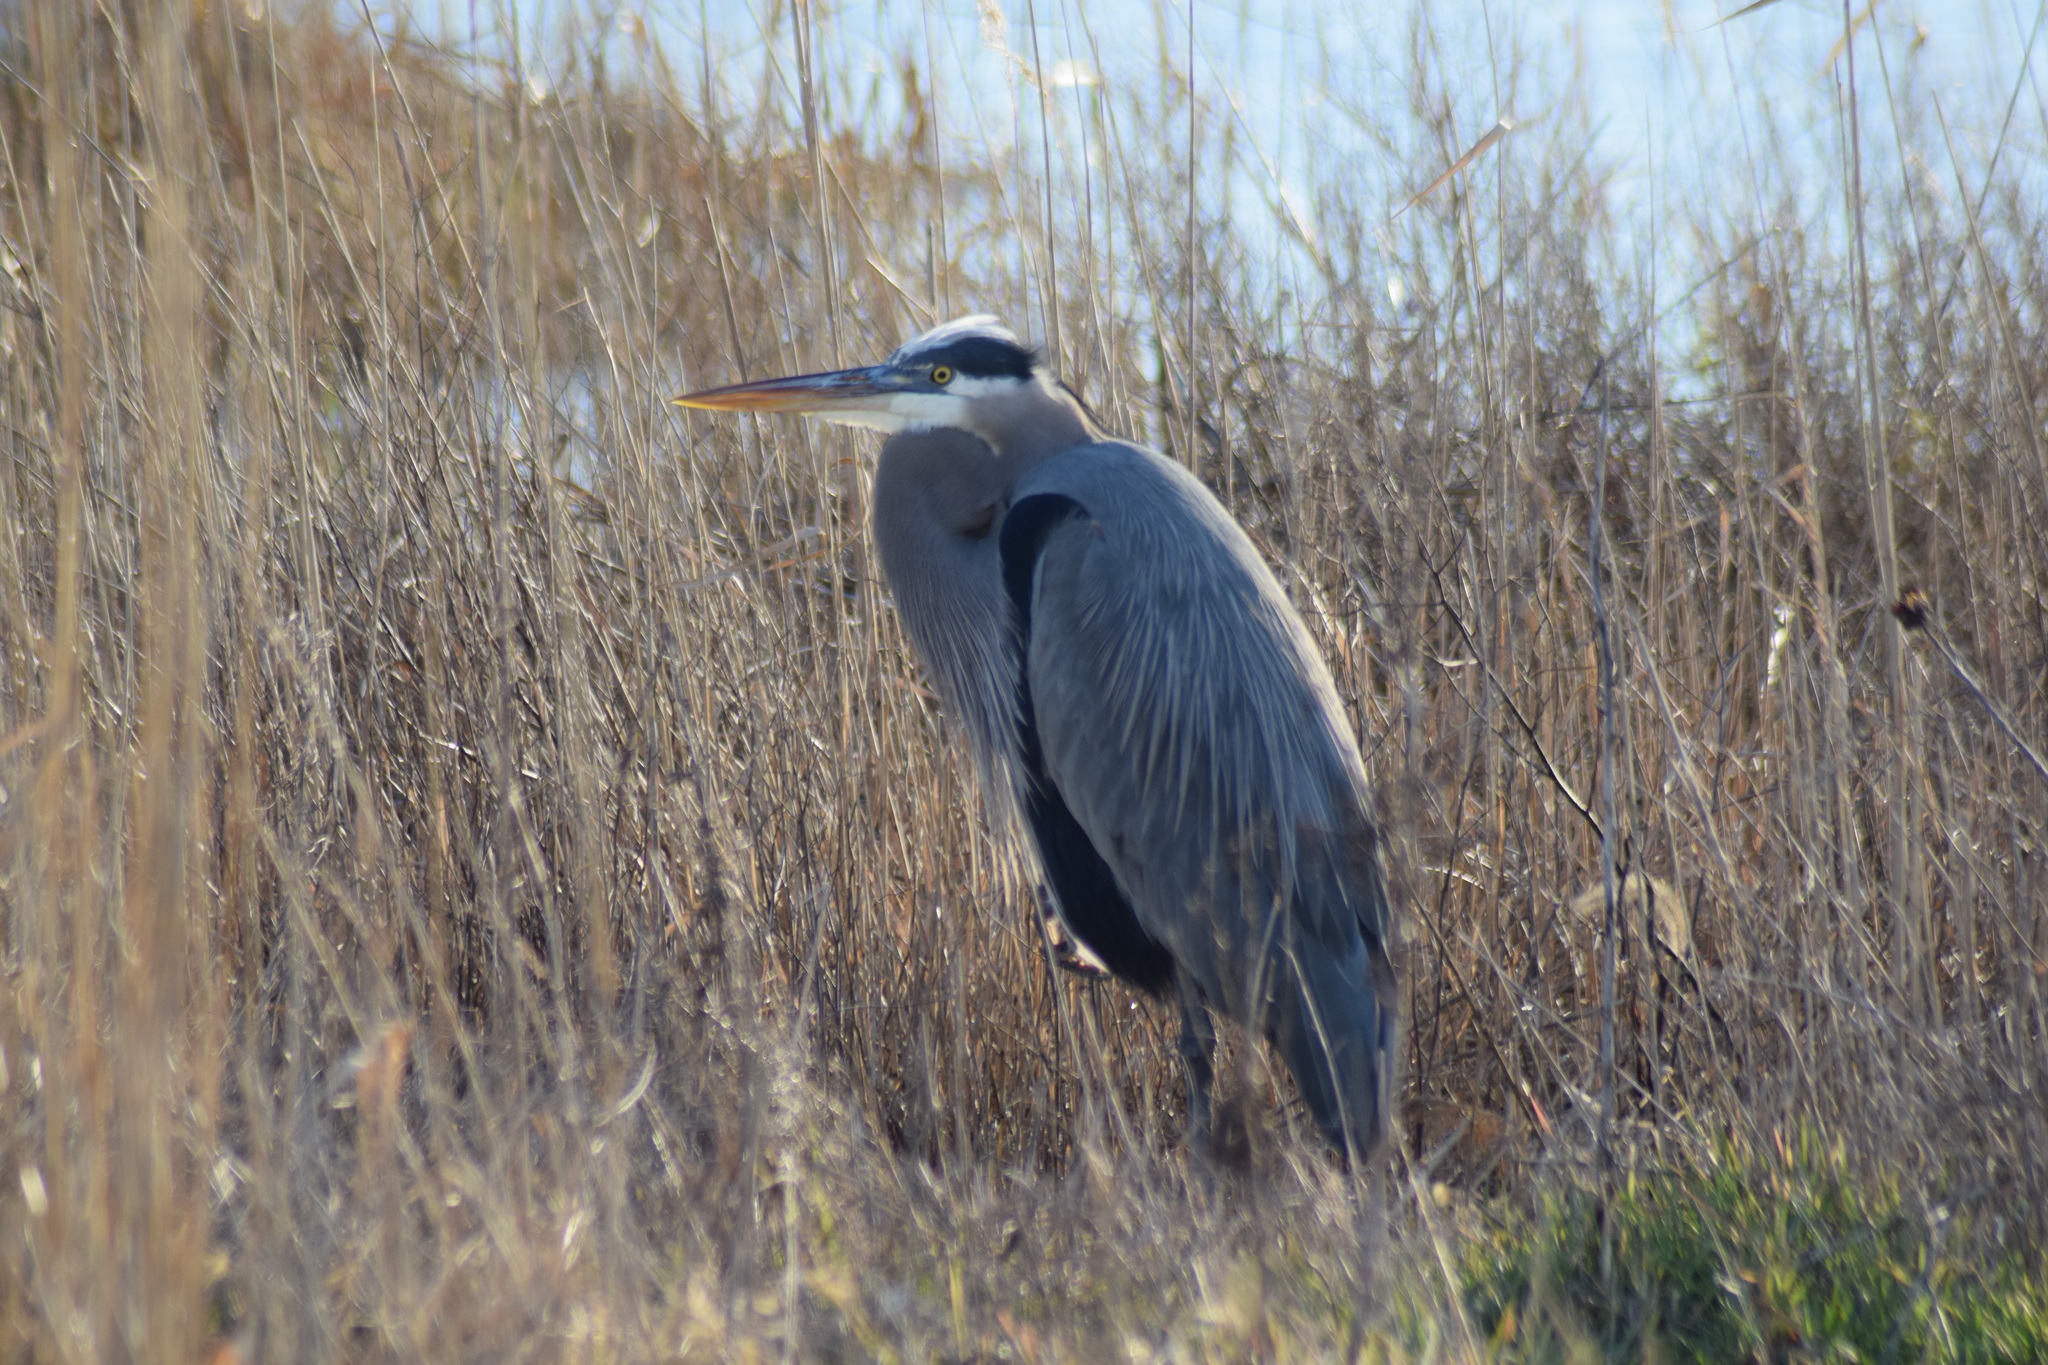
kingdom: Animalia
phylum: Chordata
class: Aves
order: Pelecaniformes
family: Ardeidae
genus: Ardea
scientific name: Ardea herodias
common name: Great blue heron
